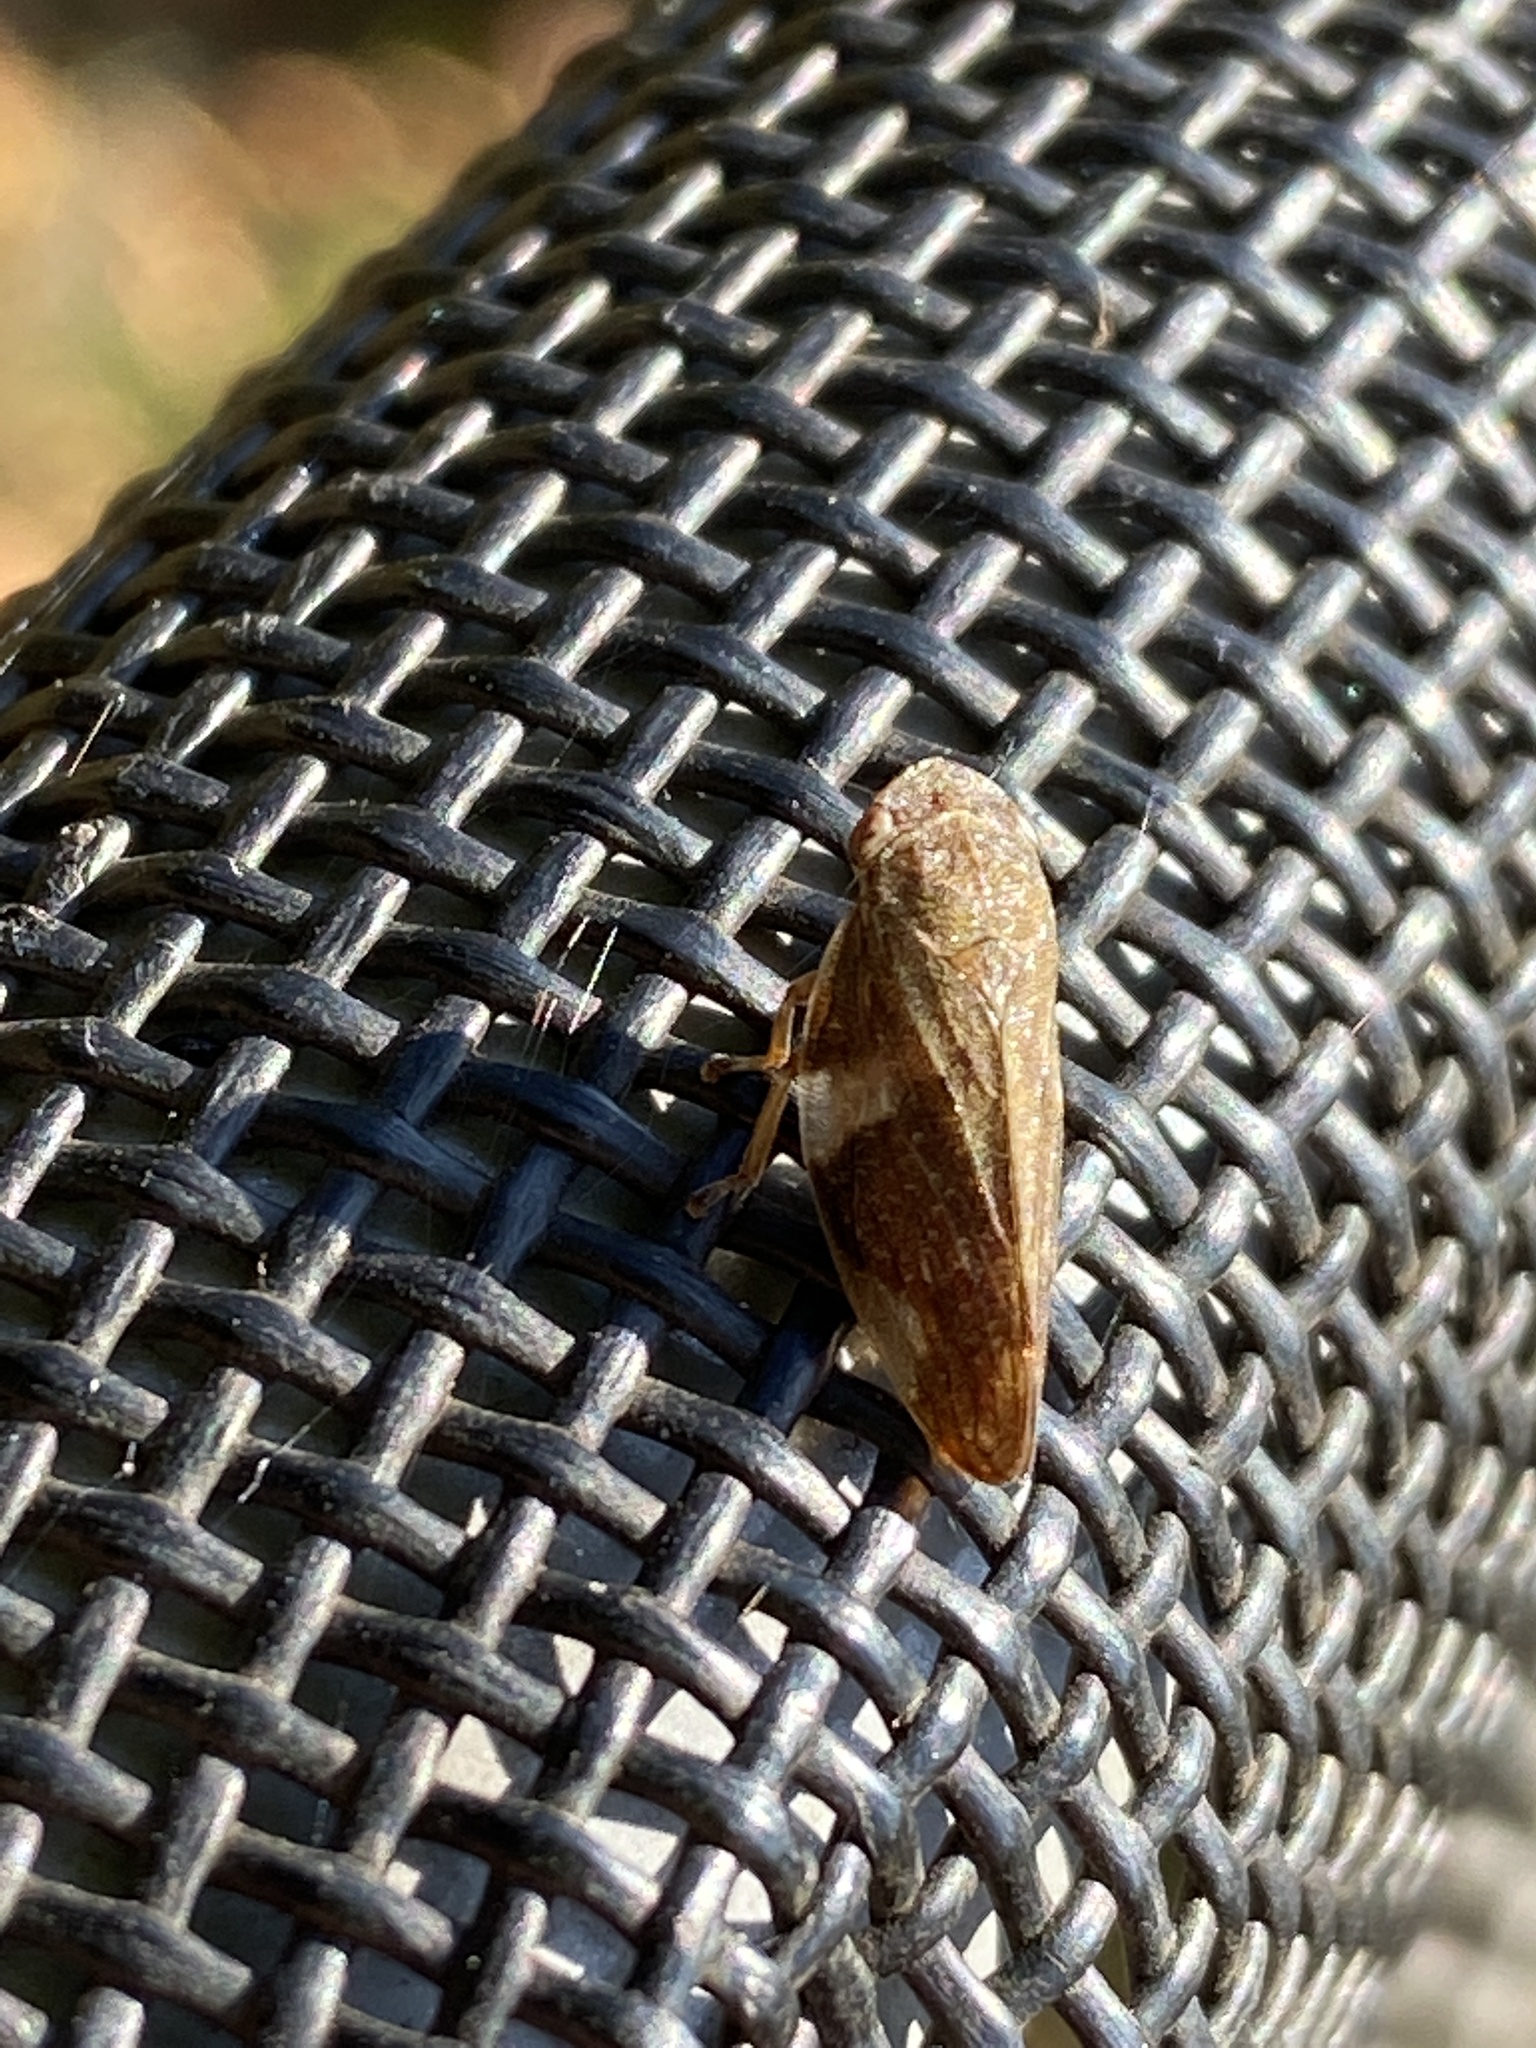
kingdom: Animalia
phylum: Arthropoda
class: Insecta
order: Hemiptera
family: Aphrophoridae
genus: Aphrophora
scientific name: Aphrophora alni
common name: European alder spittlebug
